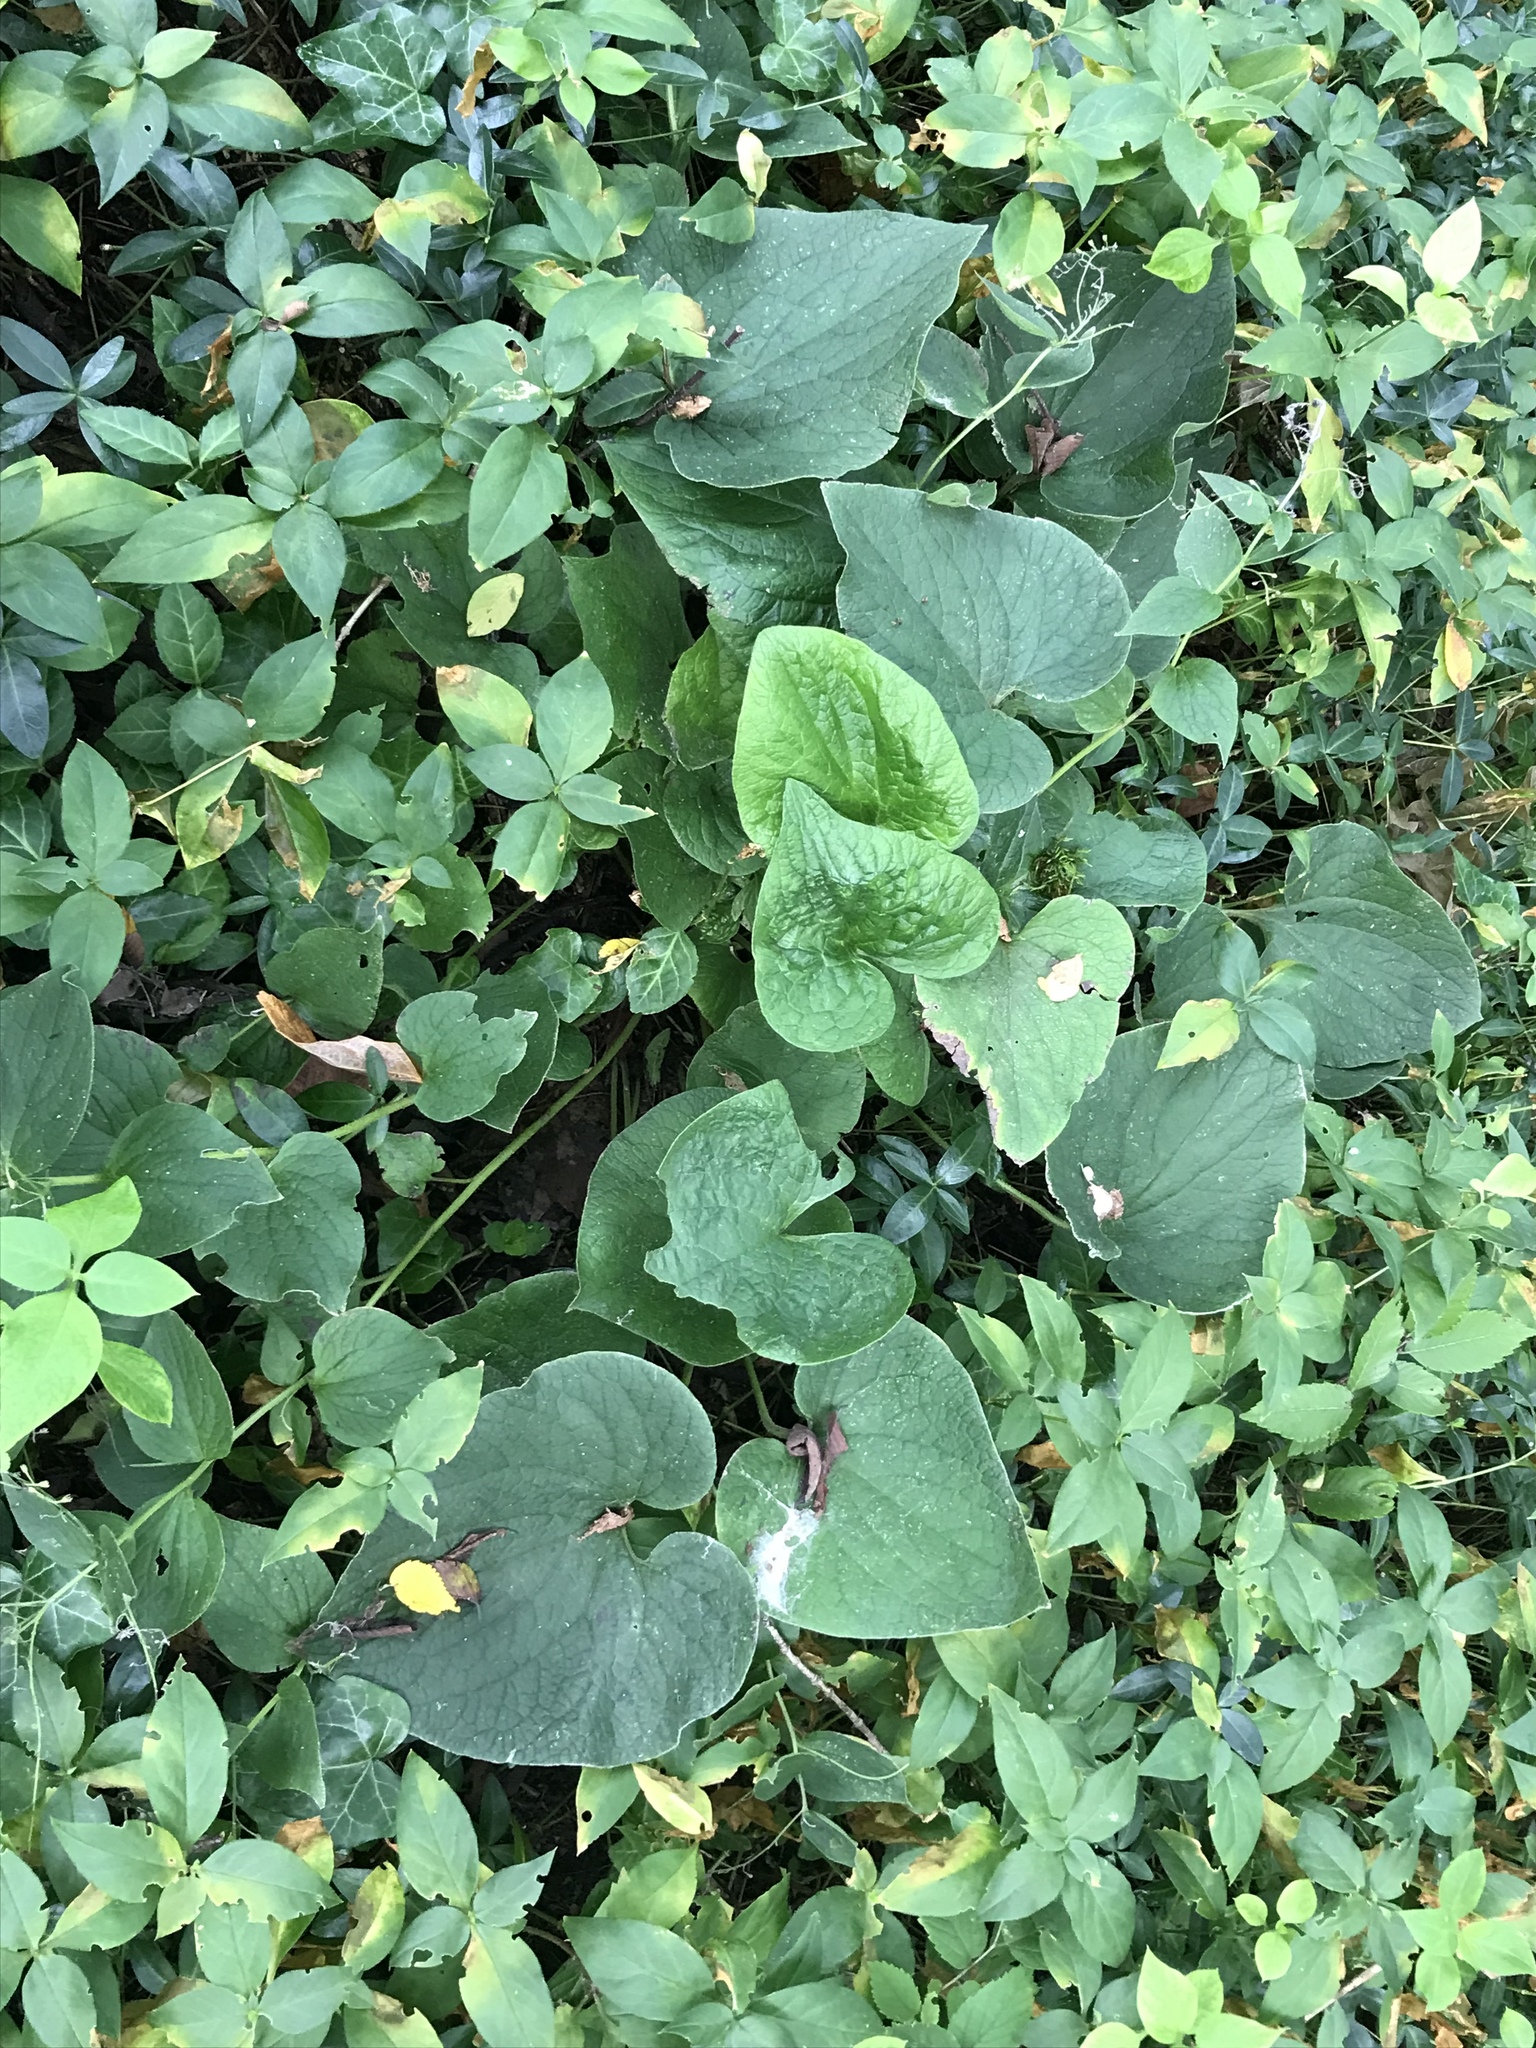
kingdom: Plantae
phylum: Tracheophyta
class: Magnoliopsida
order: Piperales
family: Aristolochiaceae
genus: Asarum
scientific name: Asarum canadense
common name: Wild ginger
